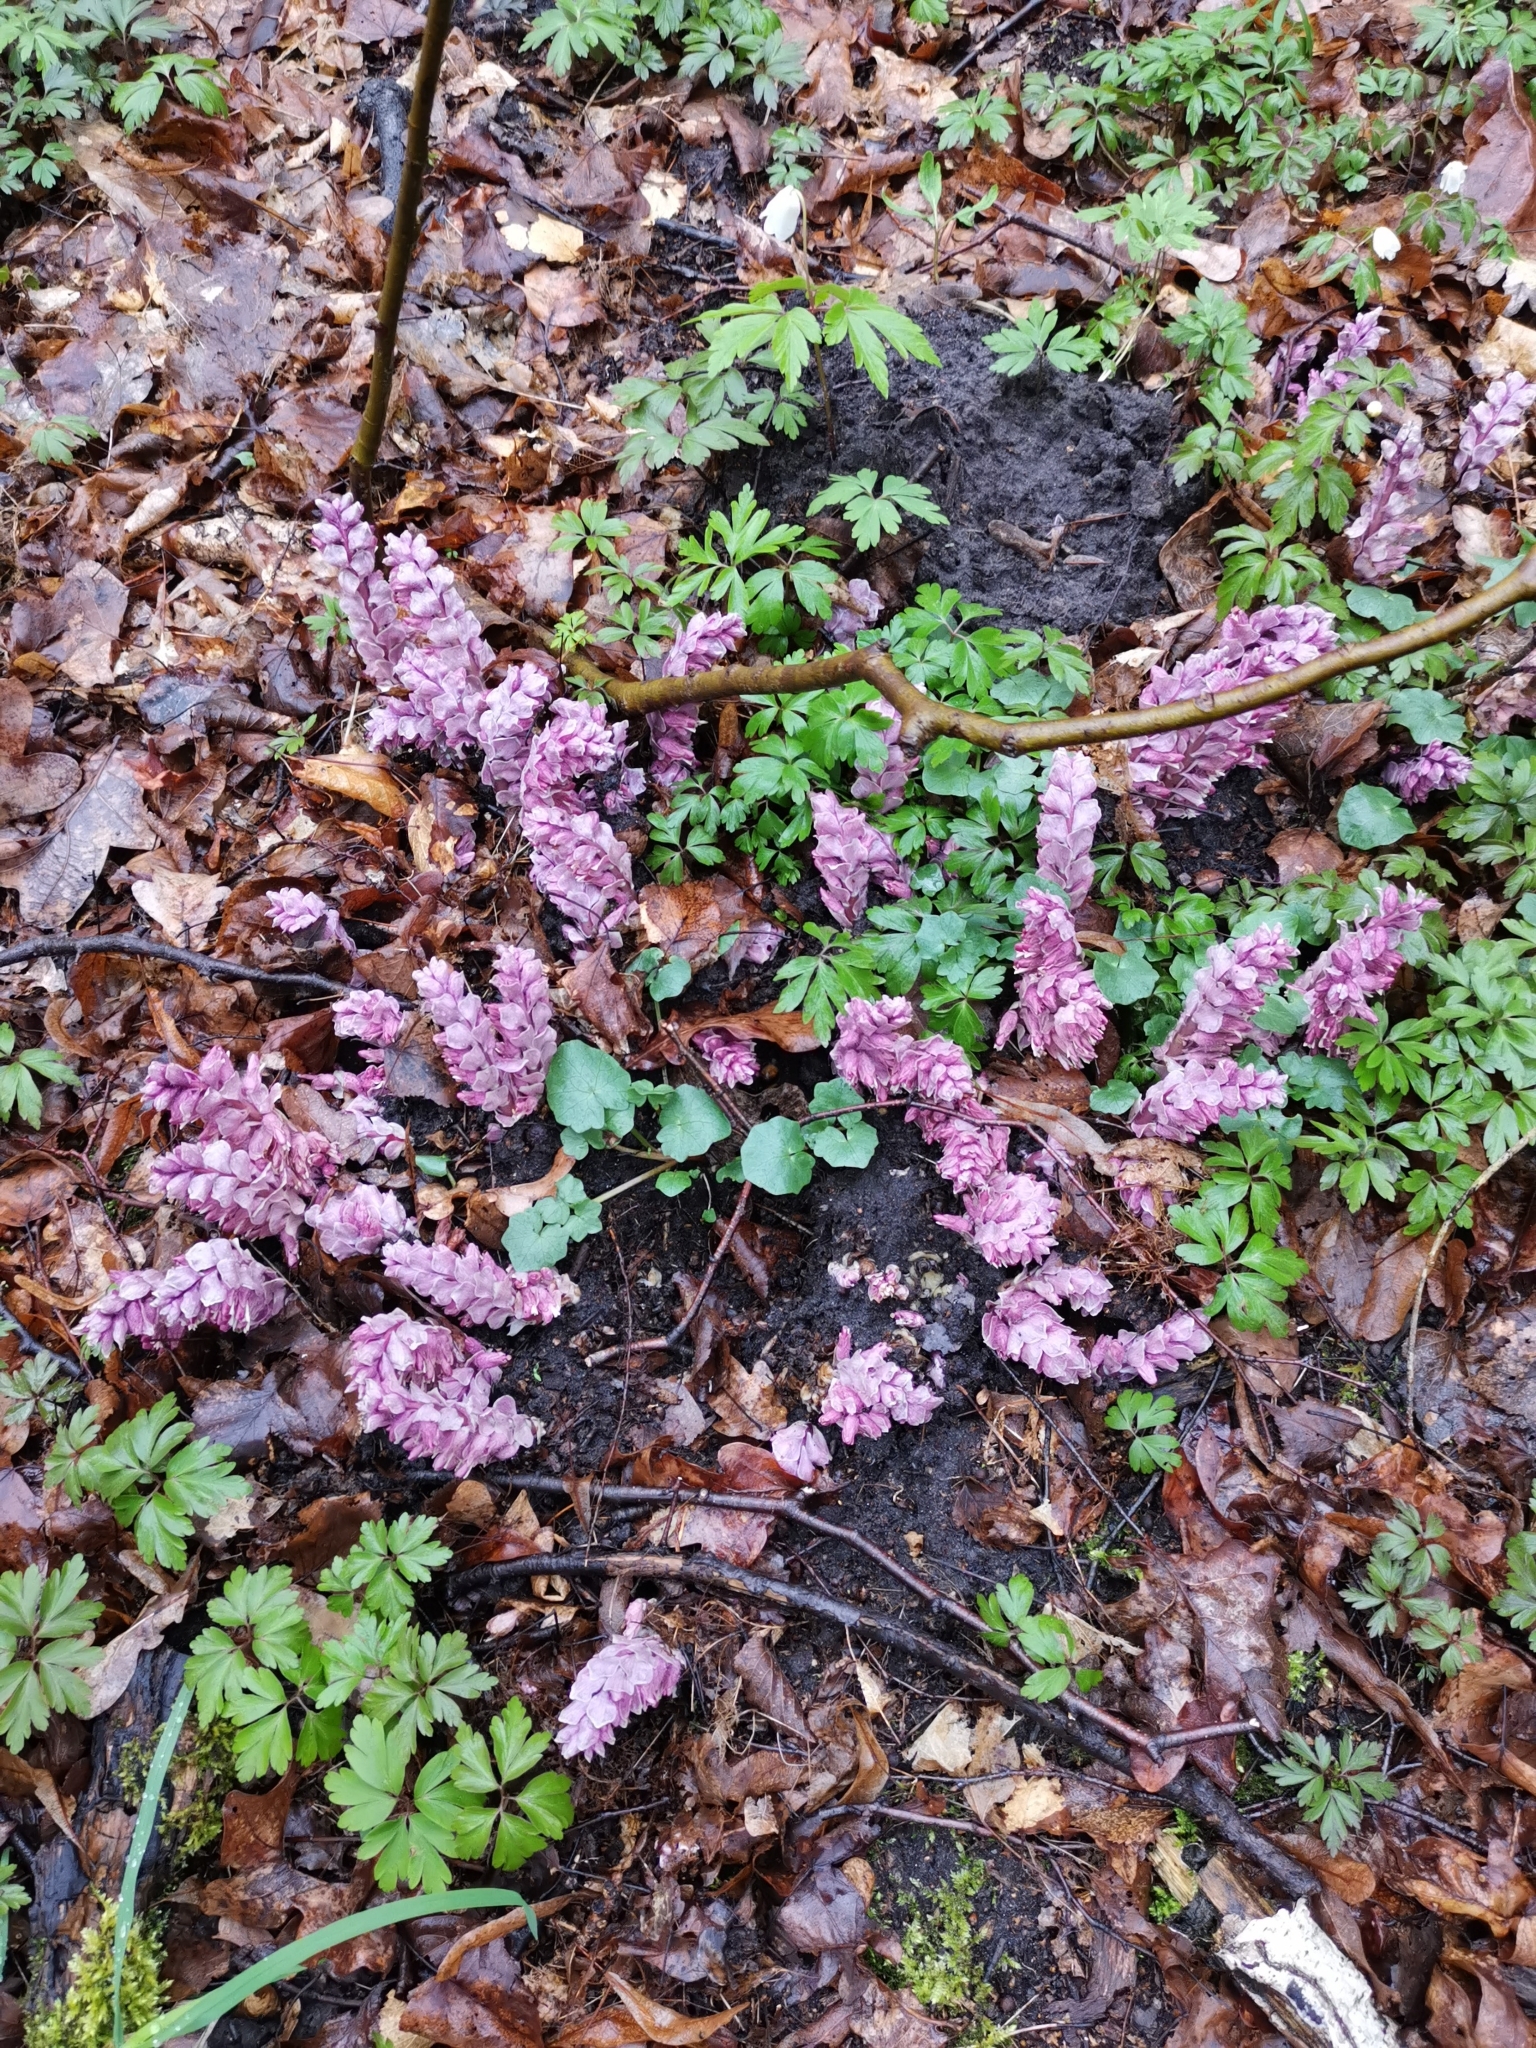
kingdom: Plantae
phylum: Tracheophyta
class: Magnoliopsida
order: Lamiales
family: Orobanchaceae
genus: Lathraea
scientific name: Lathraea squamaria
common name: Toothwort
